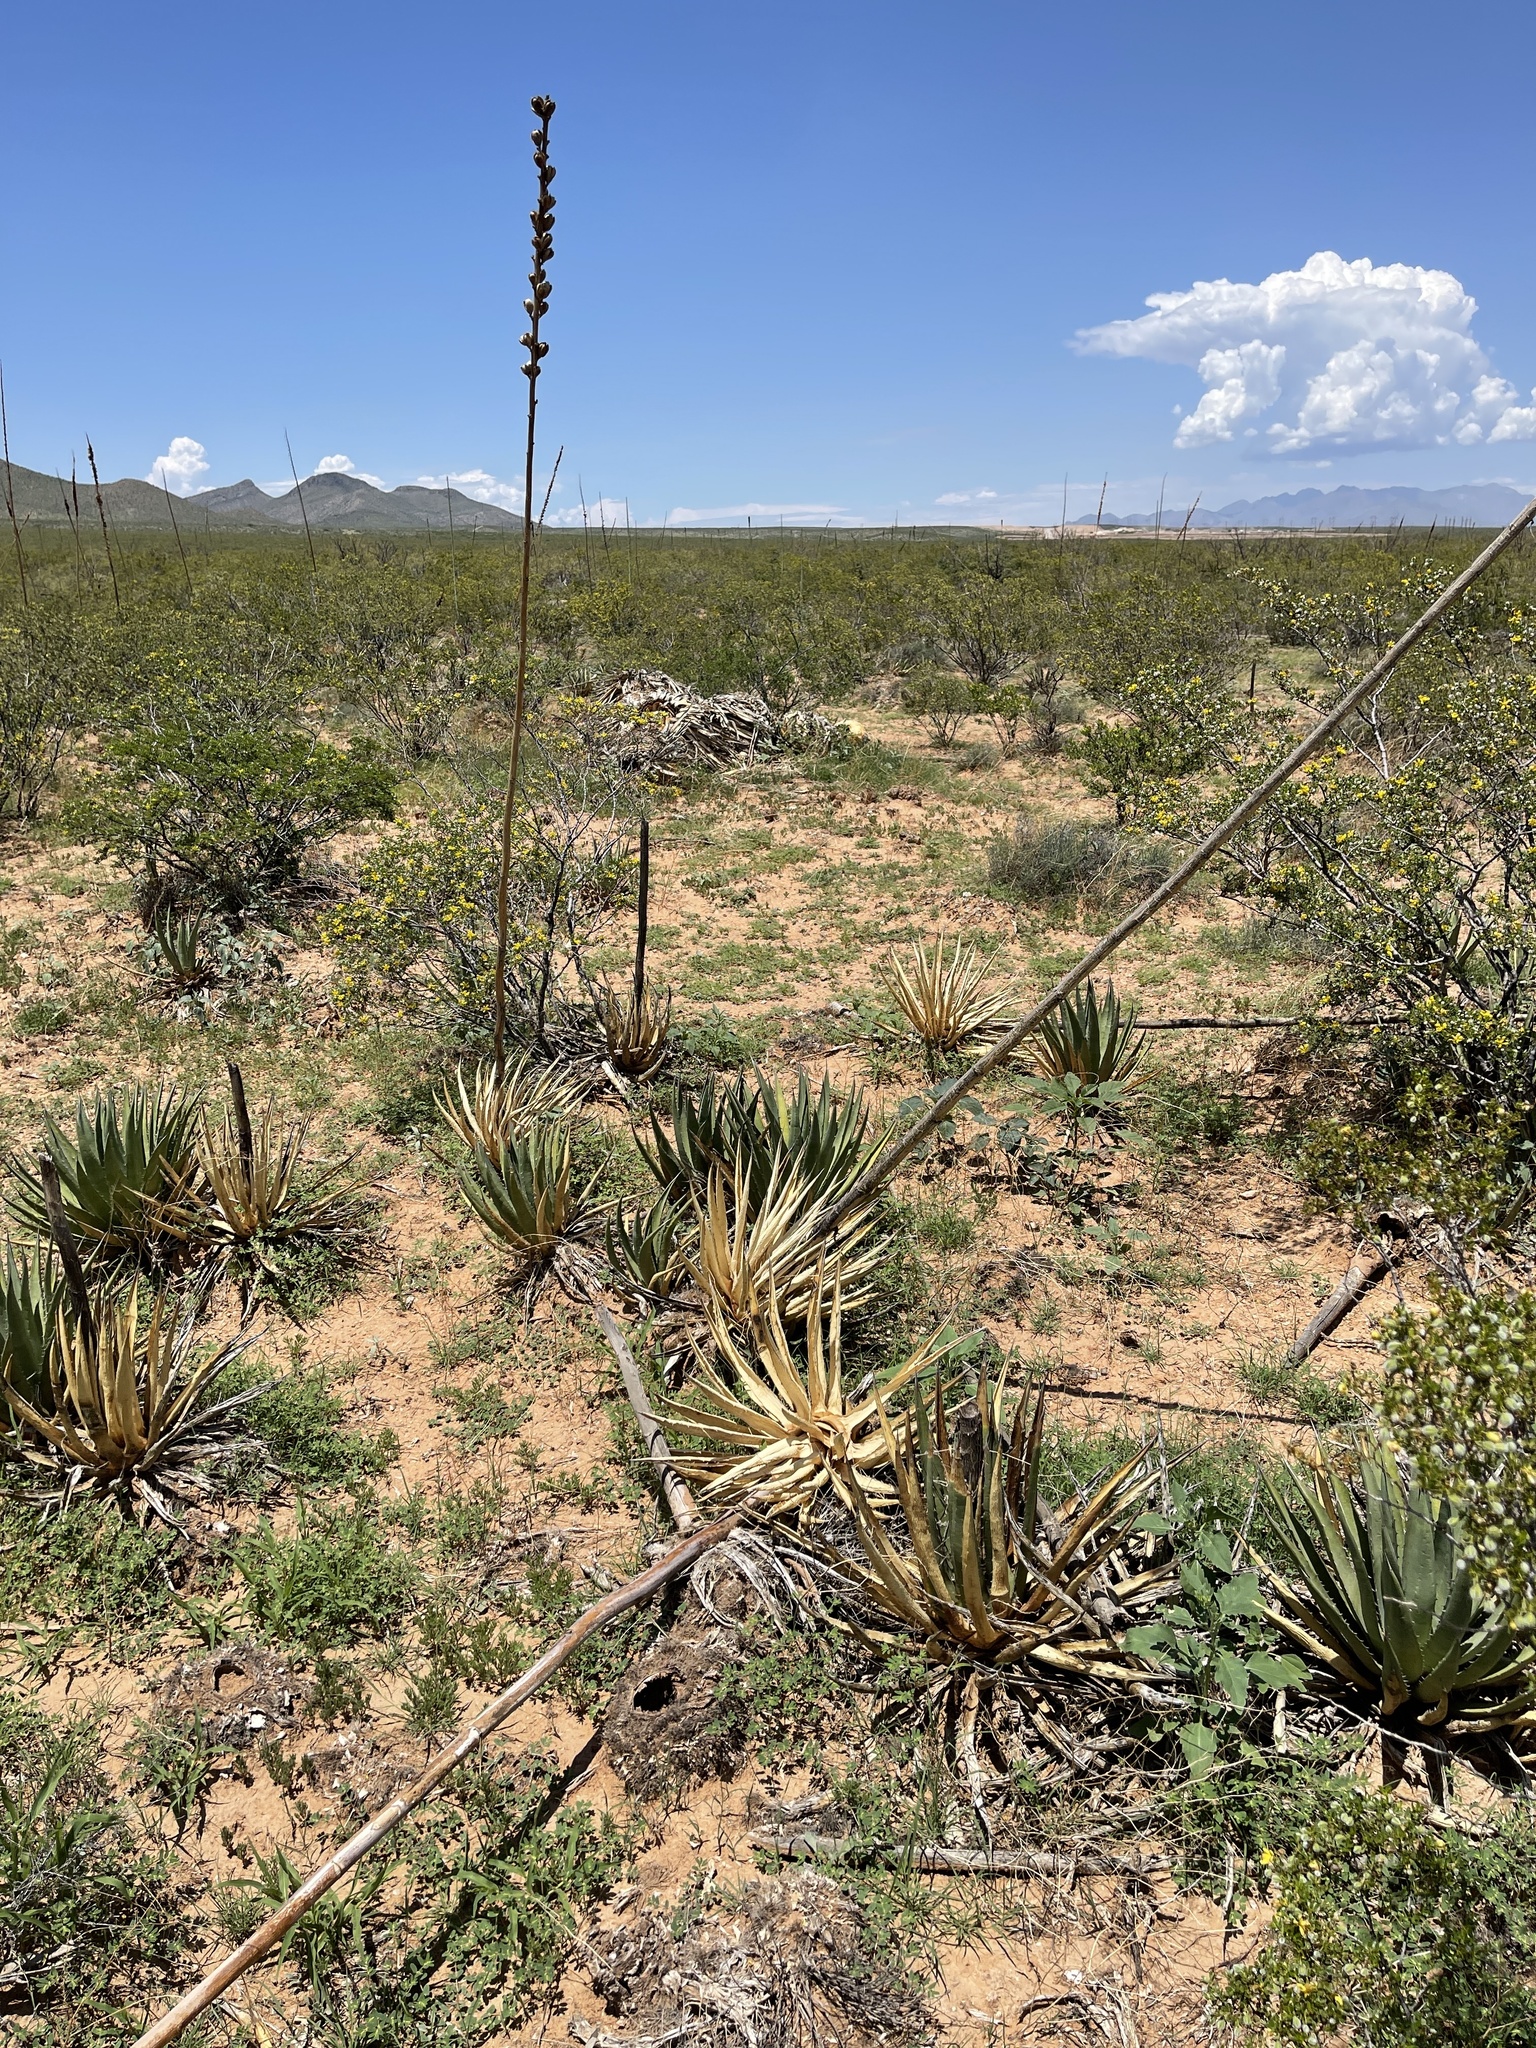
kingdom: Plantae
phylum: Tracheophyta
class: Liliopsida
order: Asparagales
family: Asparagaceae
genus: Agave
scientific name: Agave lechuguilla
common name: Lecheguilla agave
